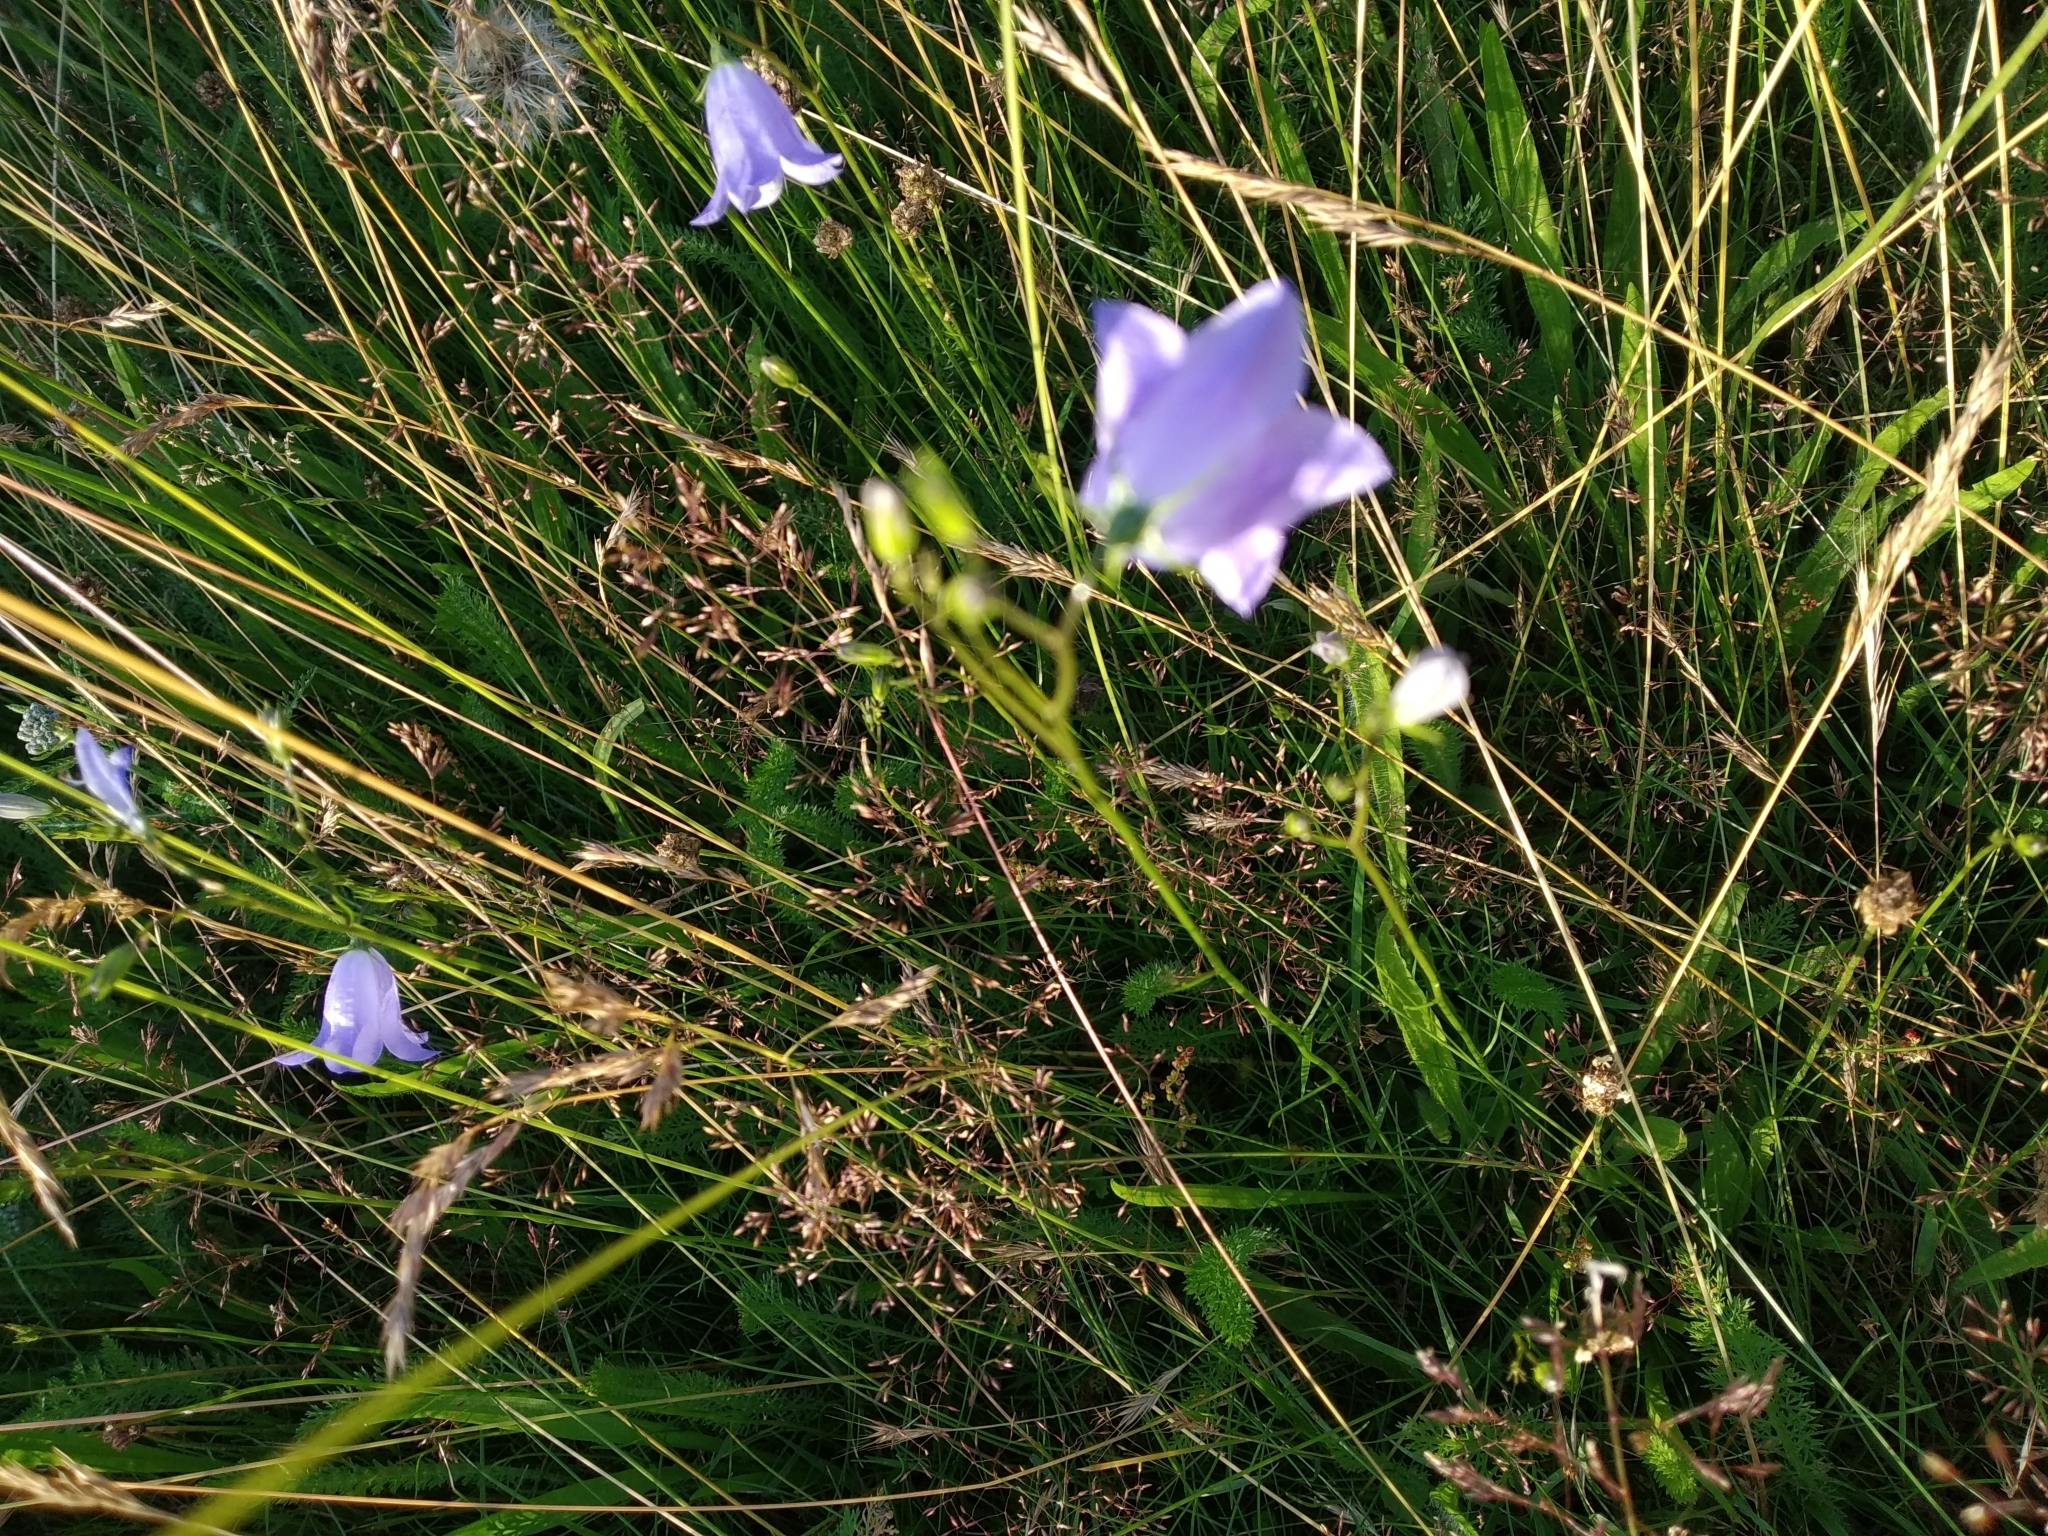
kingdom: Plantae
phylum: Tracheophyta
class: Magnoliopsida
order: Asterales
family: Campanulaceae
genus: Campanula
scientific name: Campanula rotundifolia
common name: Harebell
